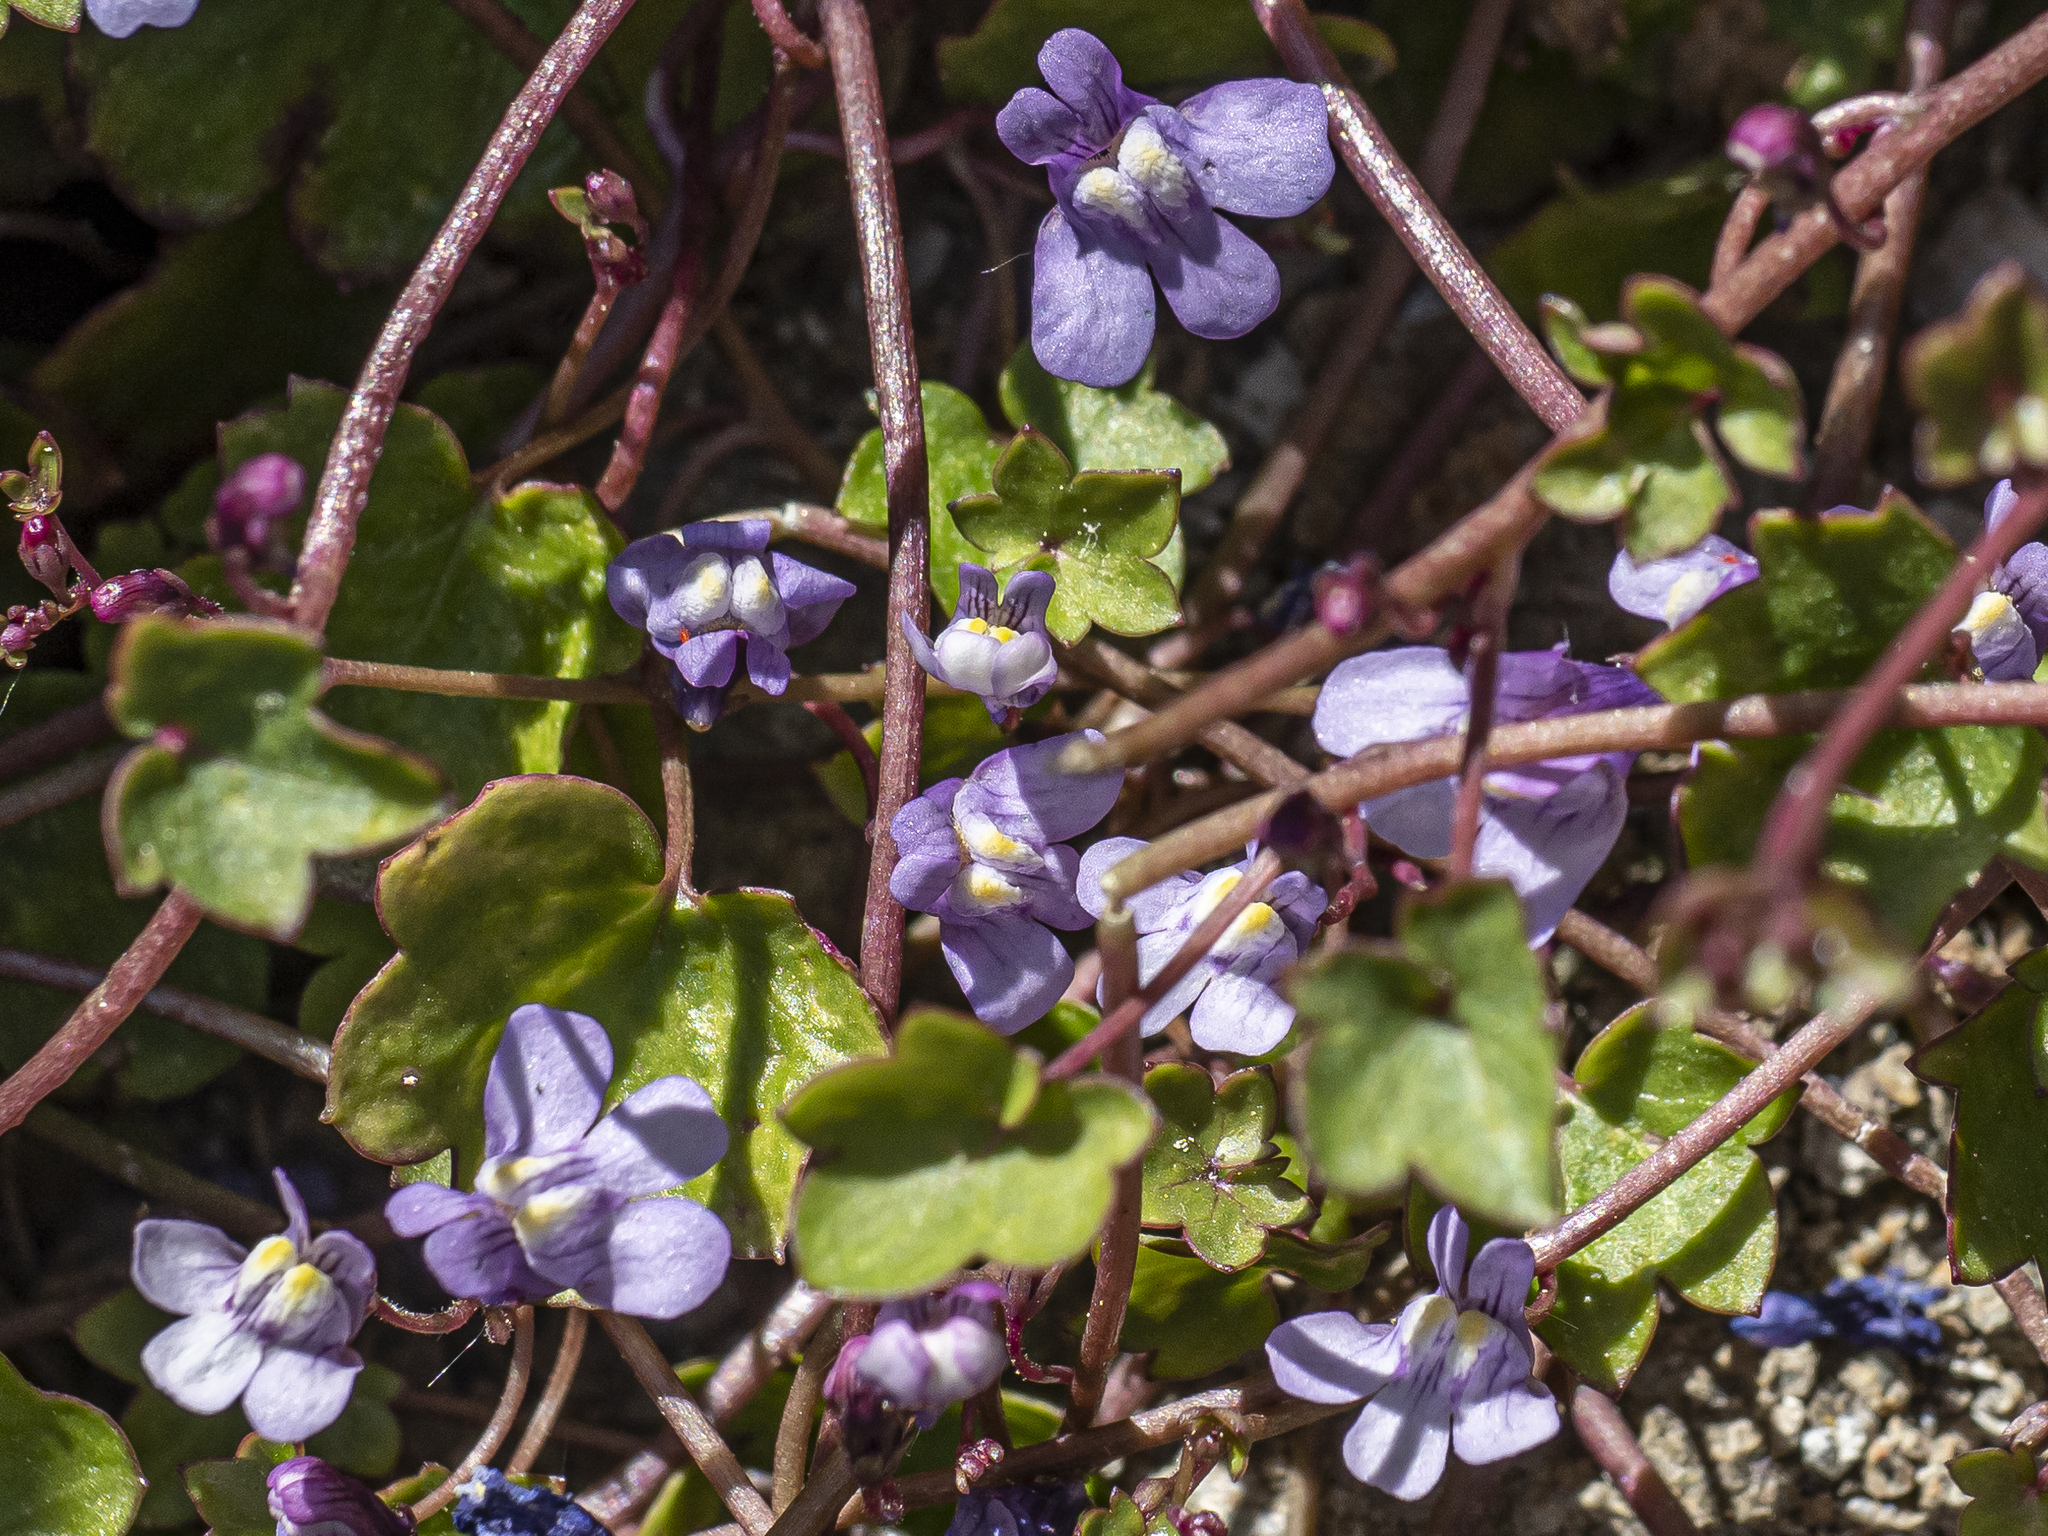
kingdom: Plantae
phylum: Tracheophyta
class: Magnoliopsida
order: Lamiales
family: Plantaginaceae
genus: Cymbalaria
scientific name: Cymbalaria muralis
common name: Ivy-leaved toadflax
